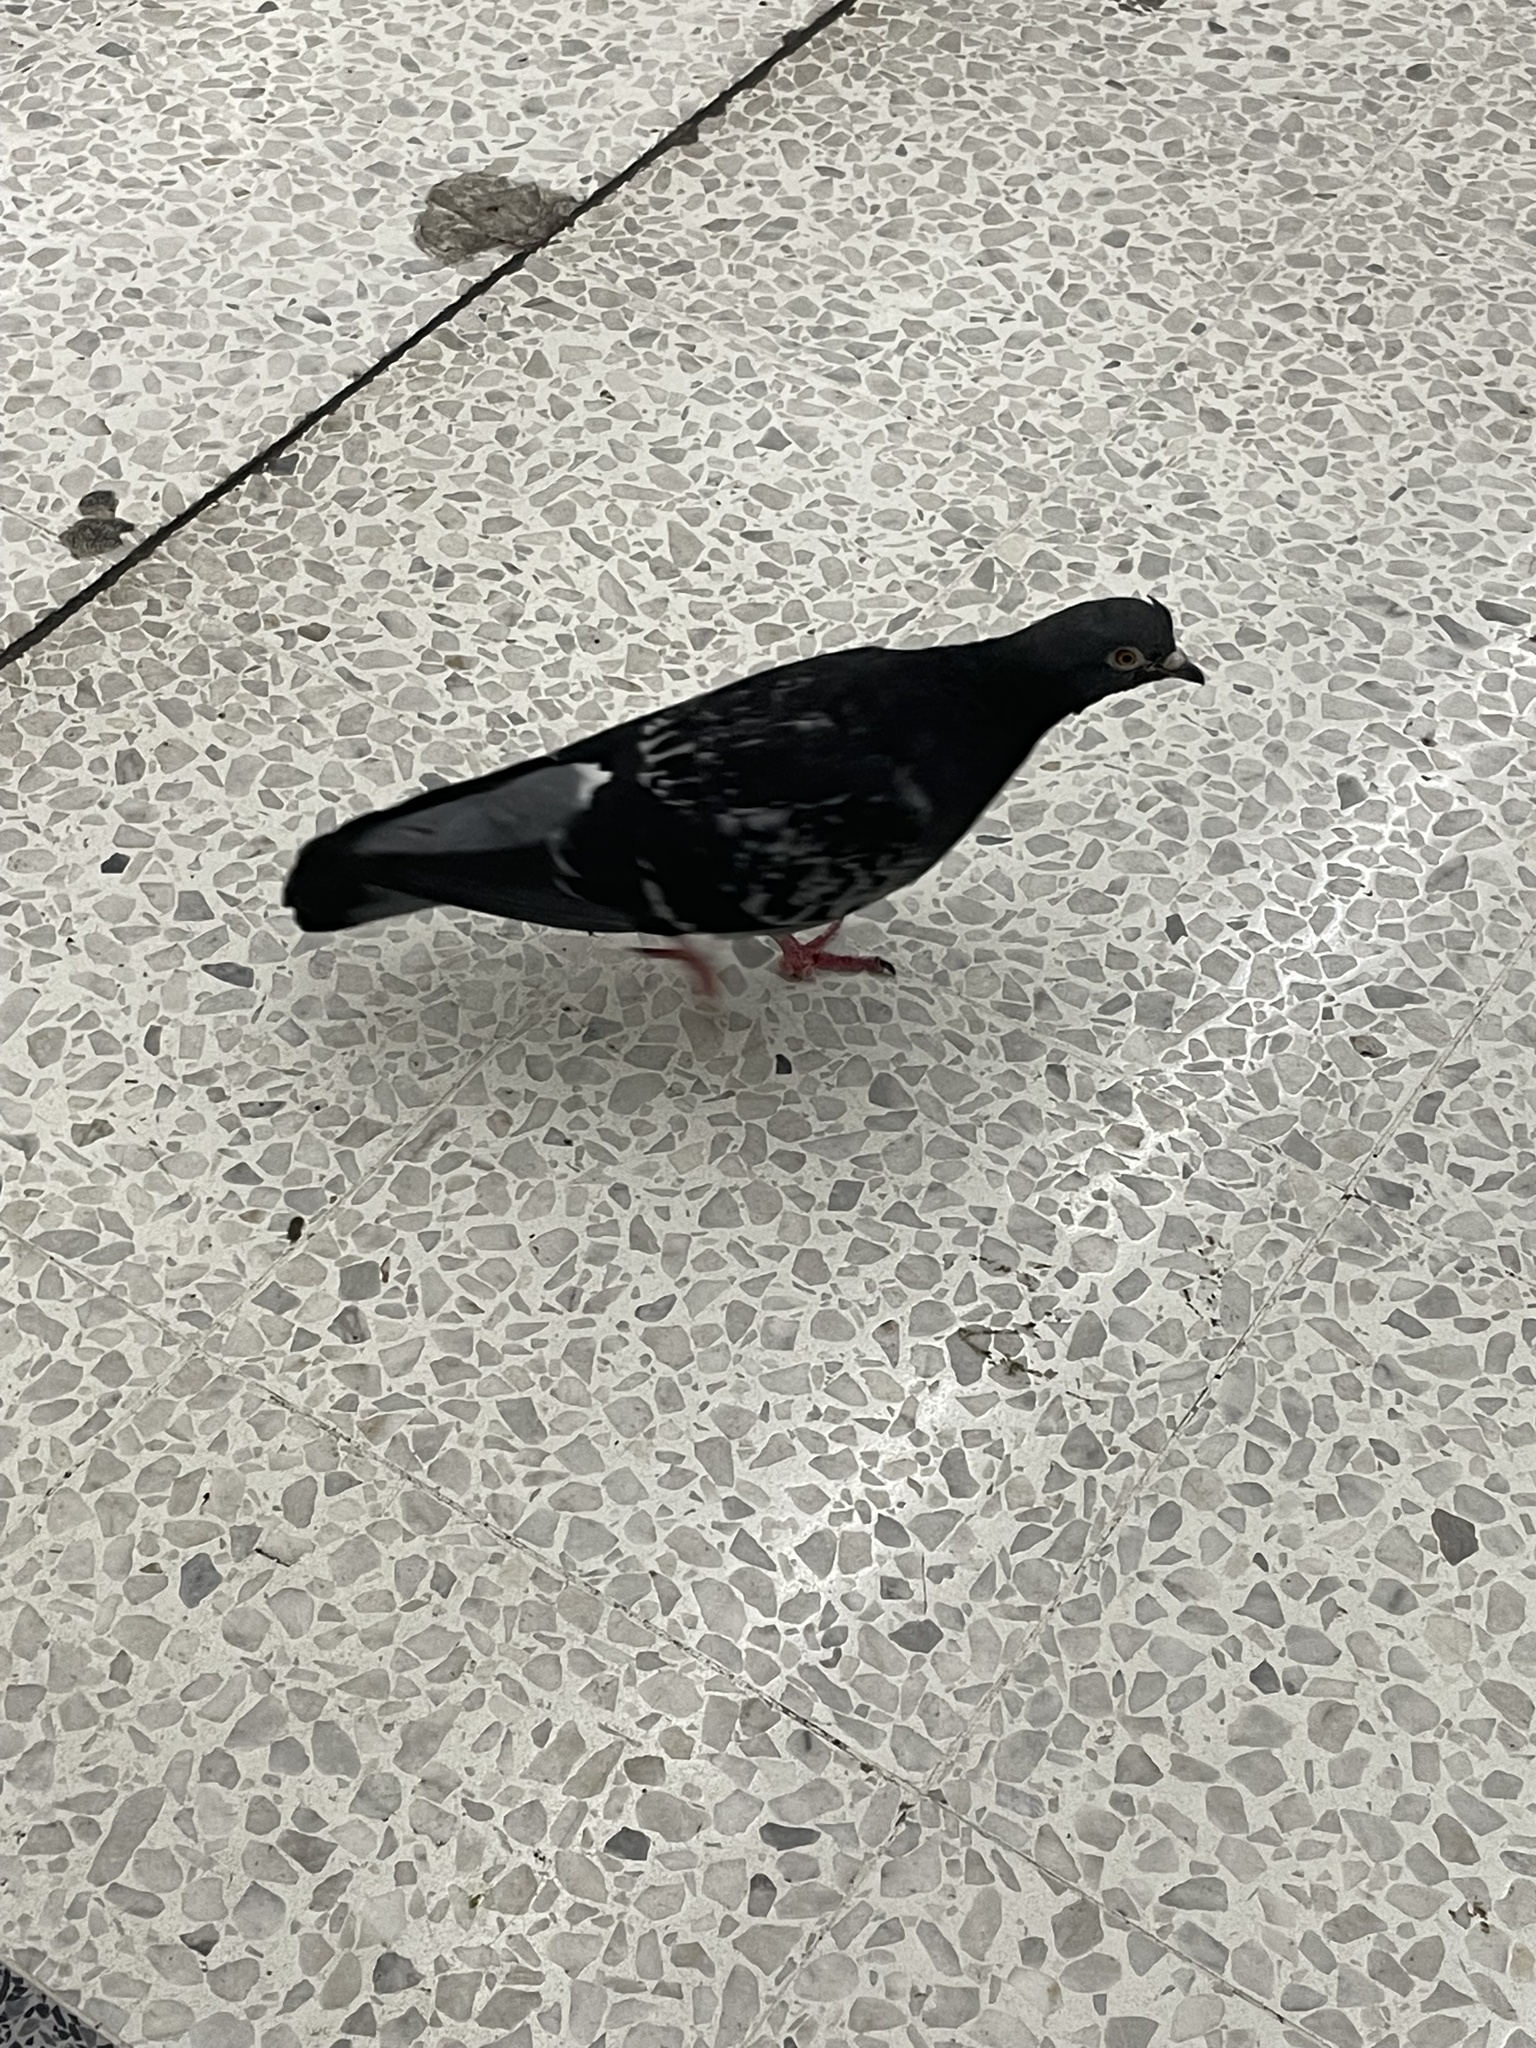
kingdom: Animalia
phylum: Chordata
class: Aves
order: Columbiformes
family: Columbidae
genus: Columba
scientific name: Columba livia
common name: Rock pigeon
